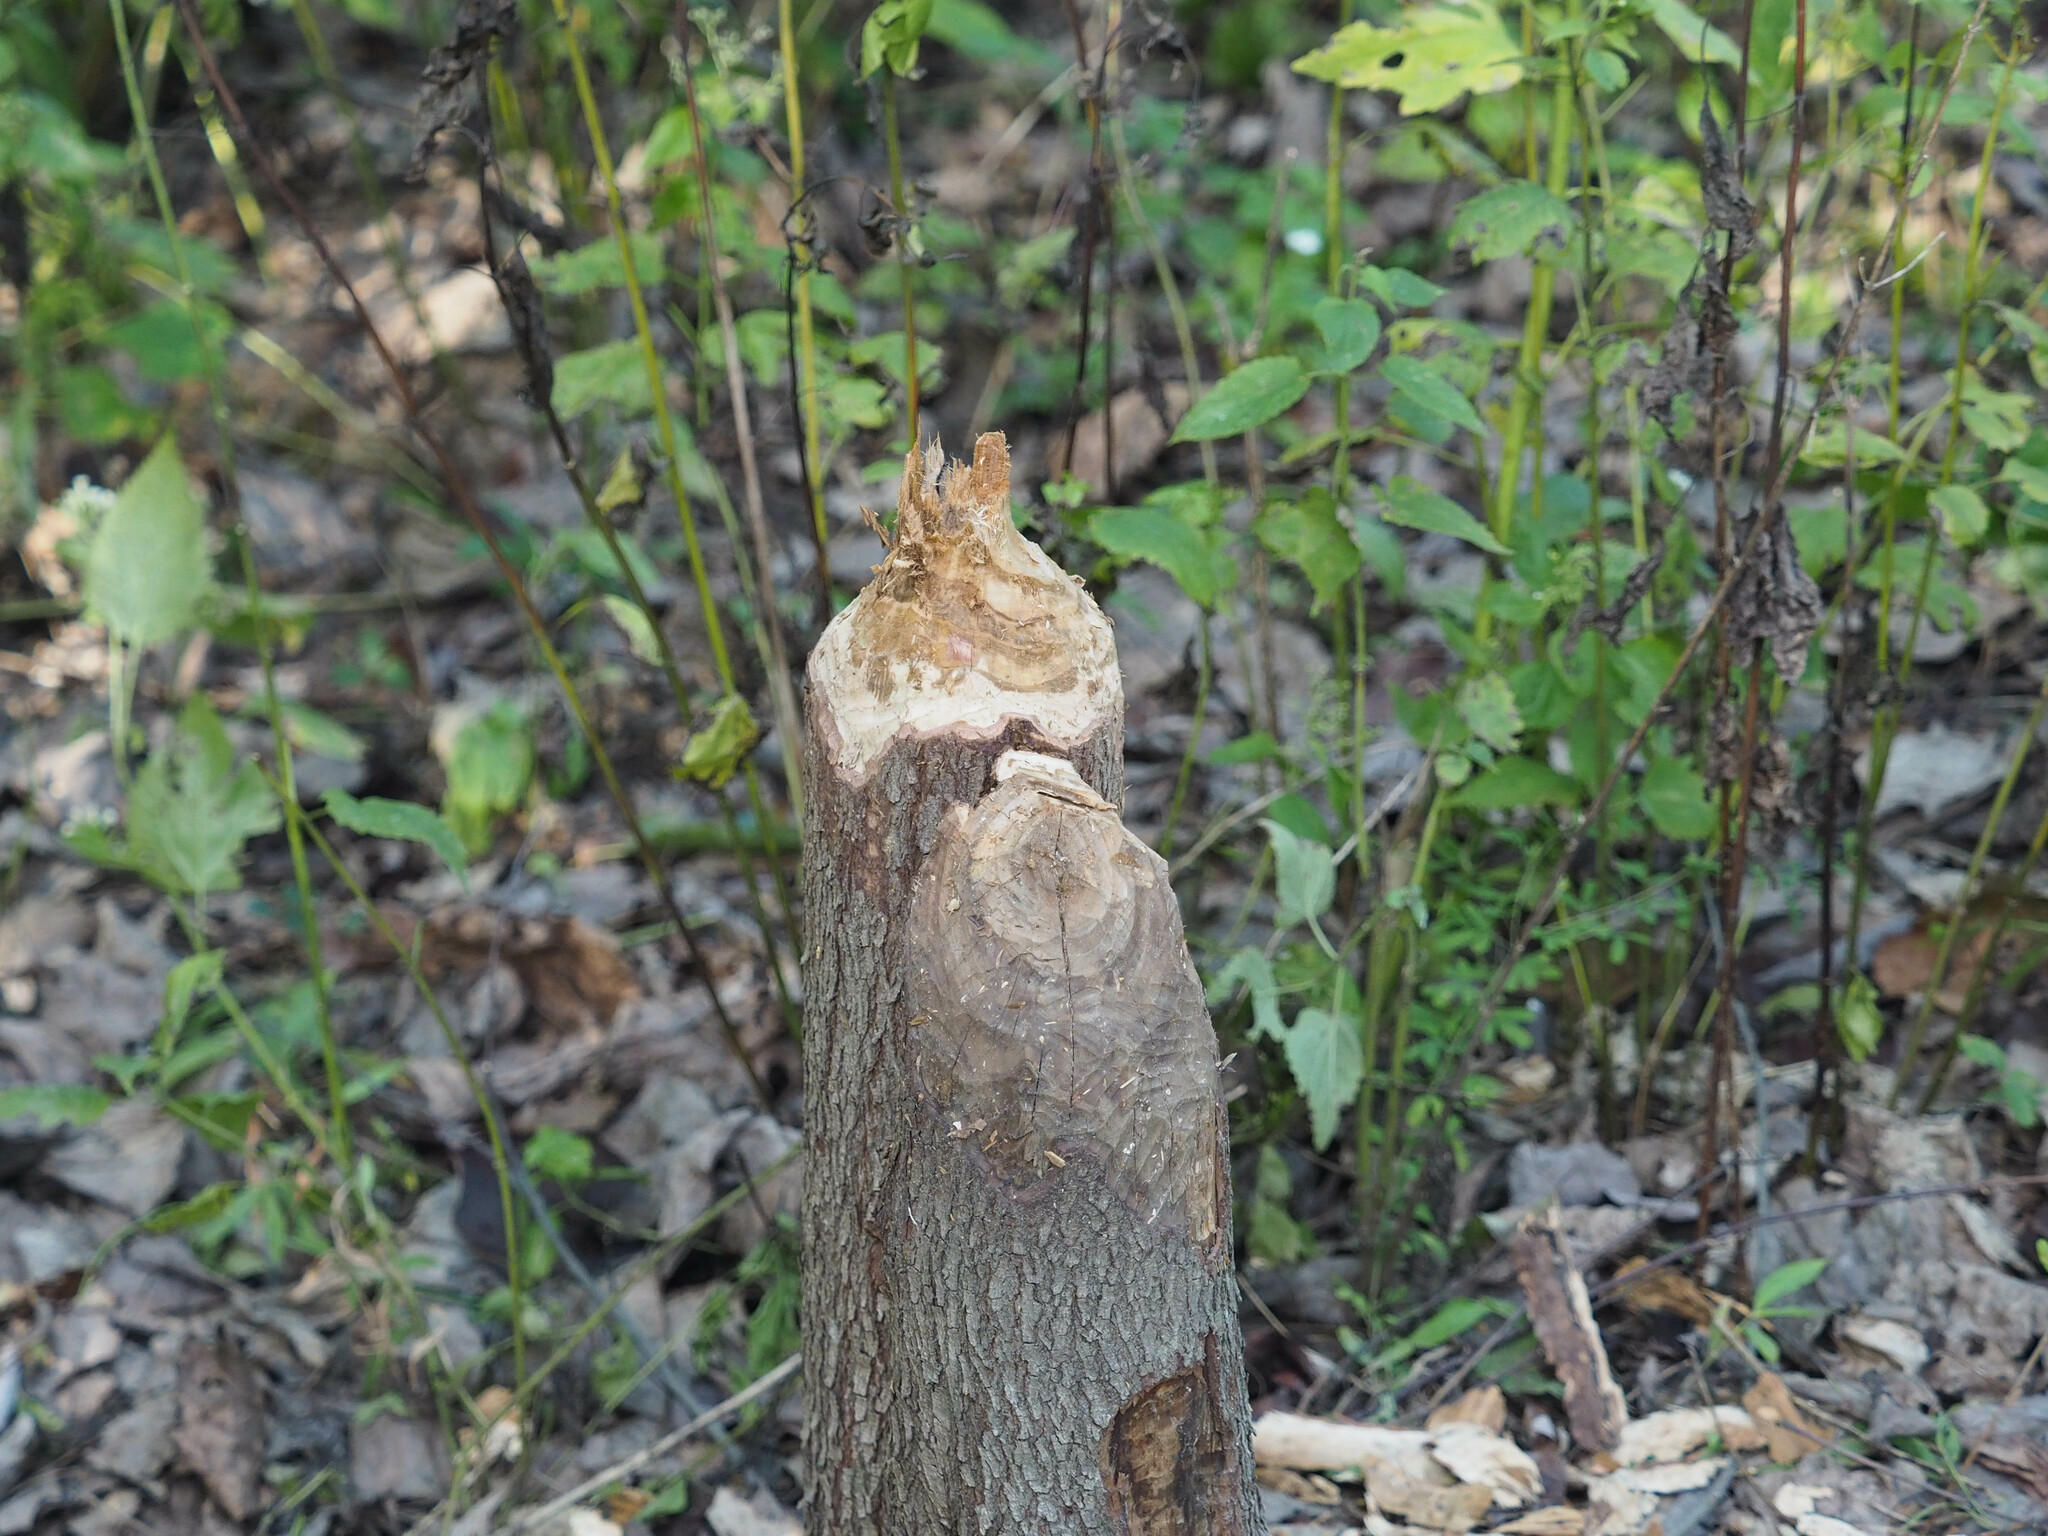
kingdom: Animalia
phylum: Chordata
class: Mammalia
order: Rodentia
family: Castoridae
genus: Castor
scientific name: Castor canadensis
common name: American beaver
